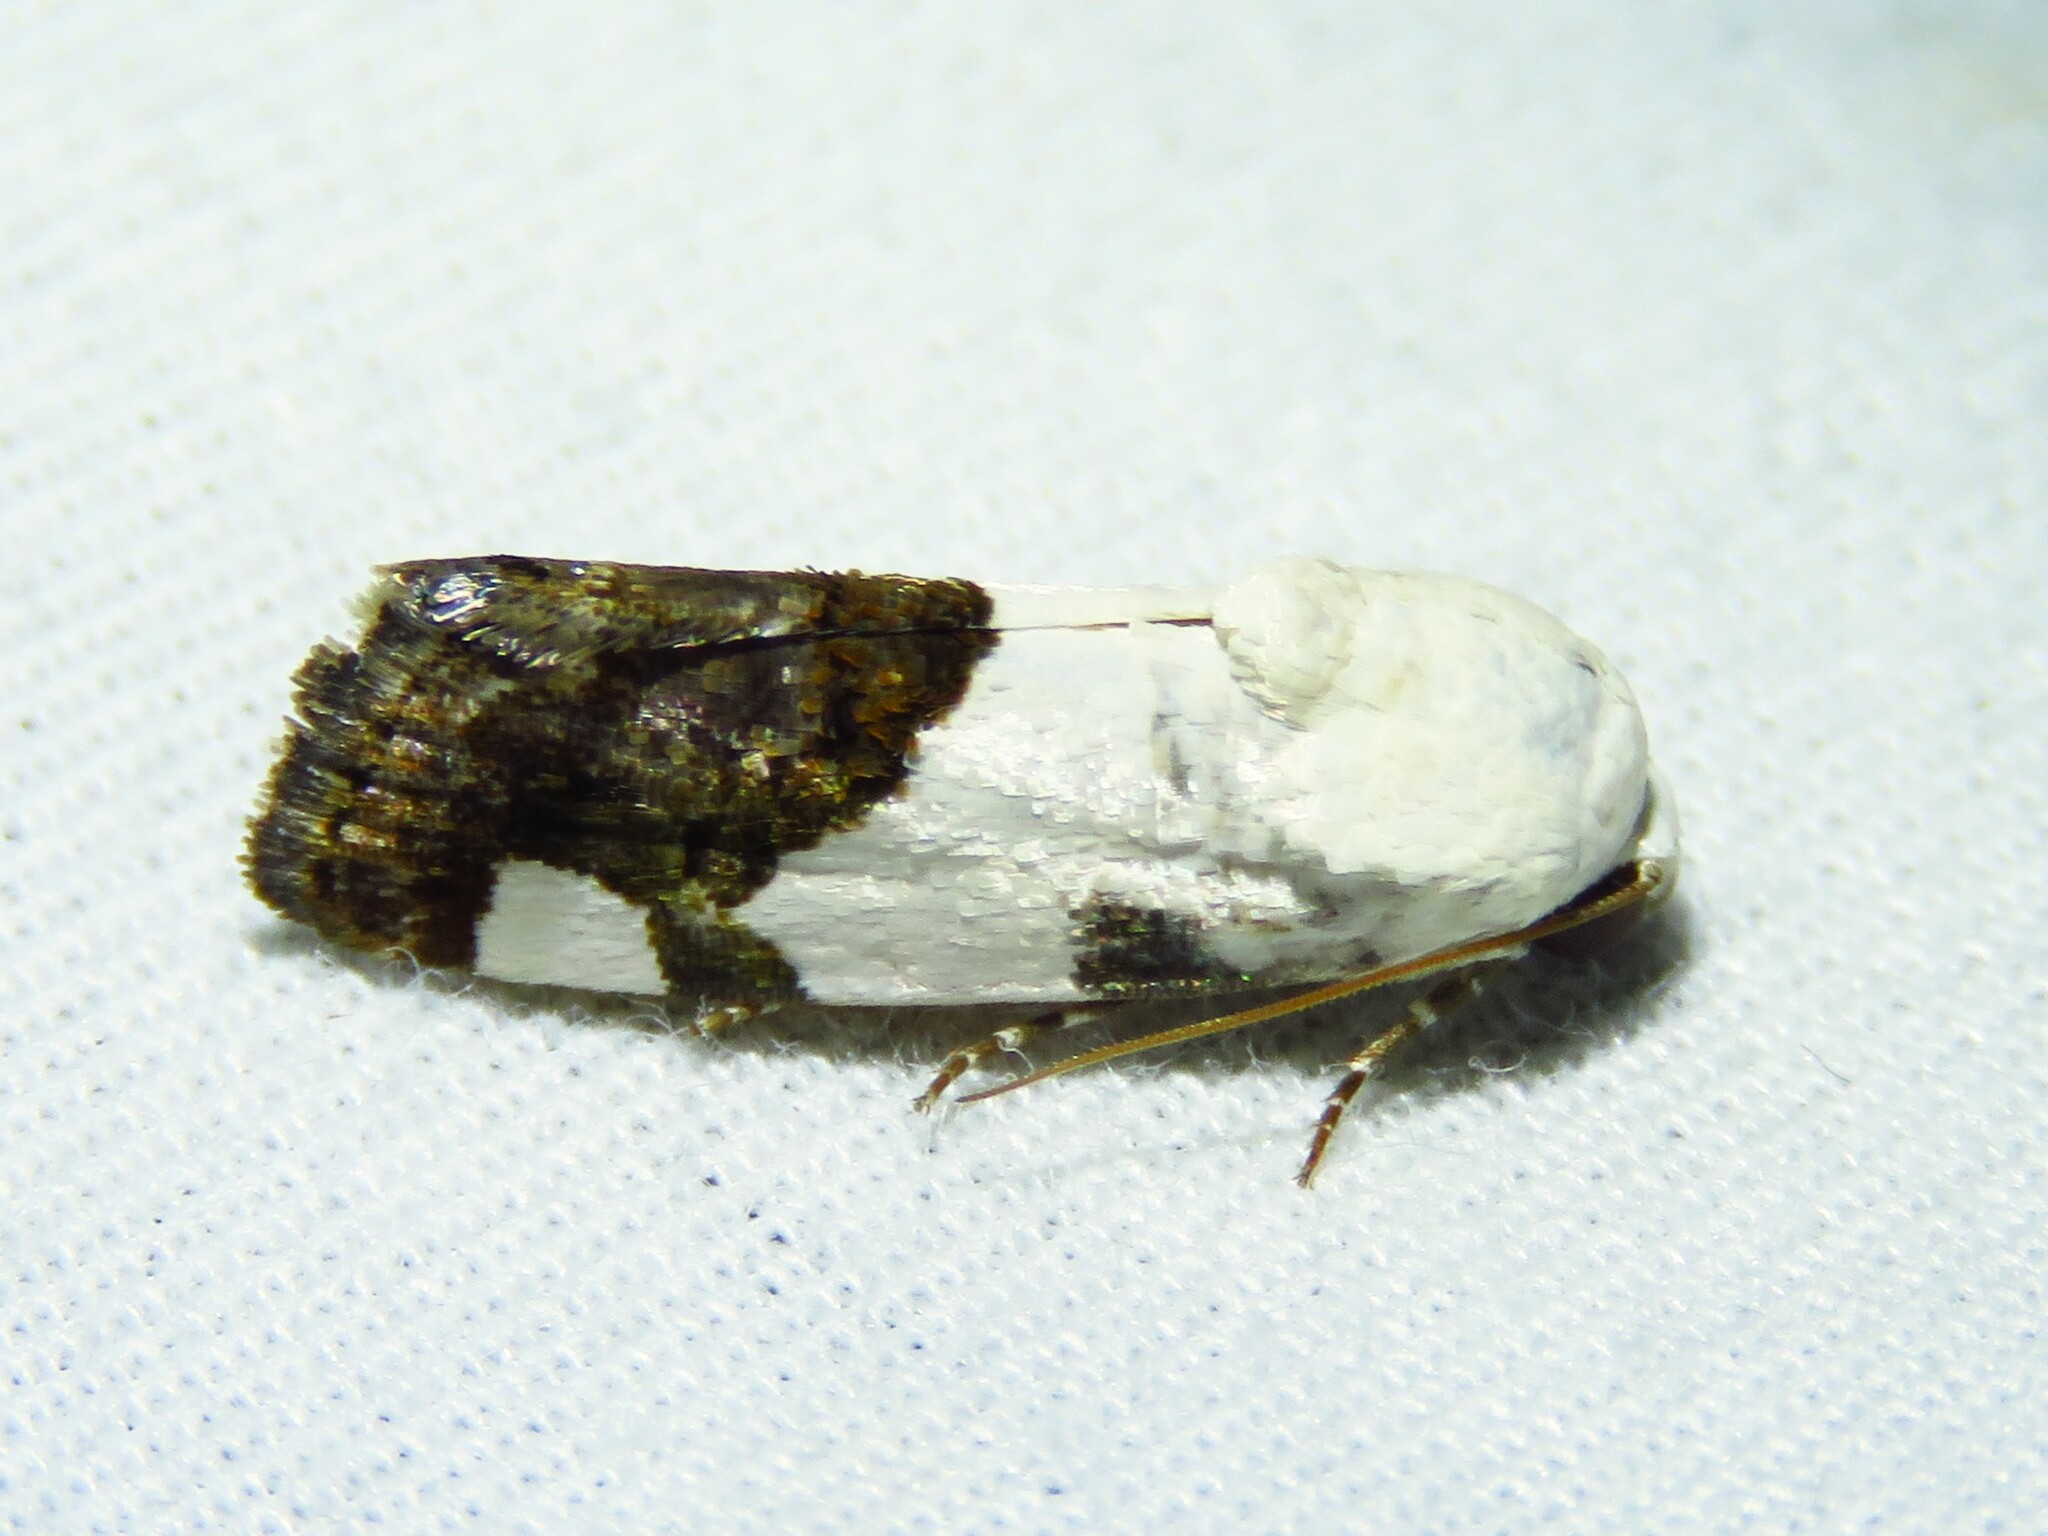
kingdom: Animalia
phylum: Arthropoda
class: Insecta
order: Lepidoptera
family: Noctuidae
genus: Acontia
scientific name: Acontia quadriplaga
